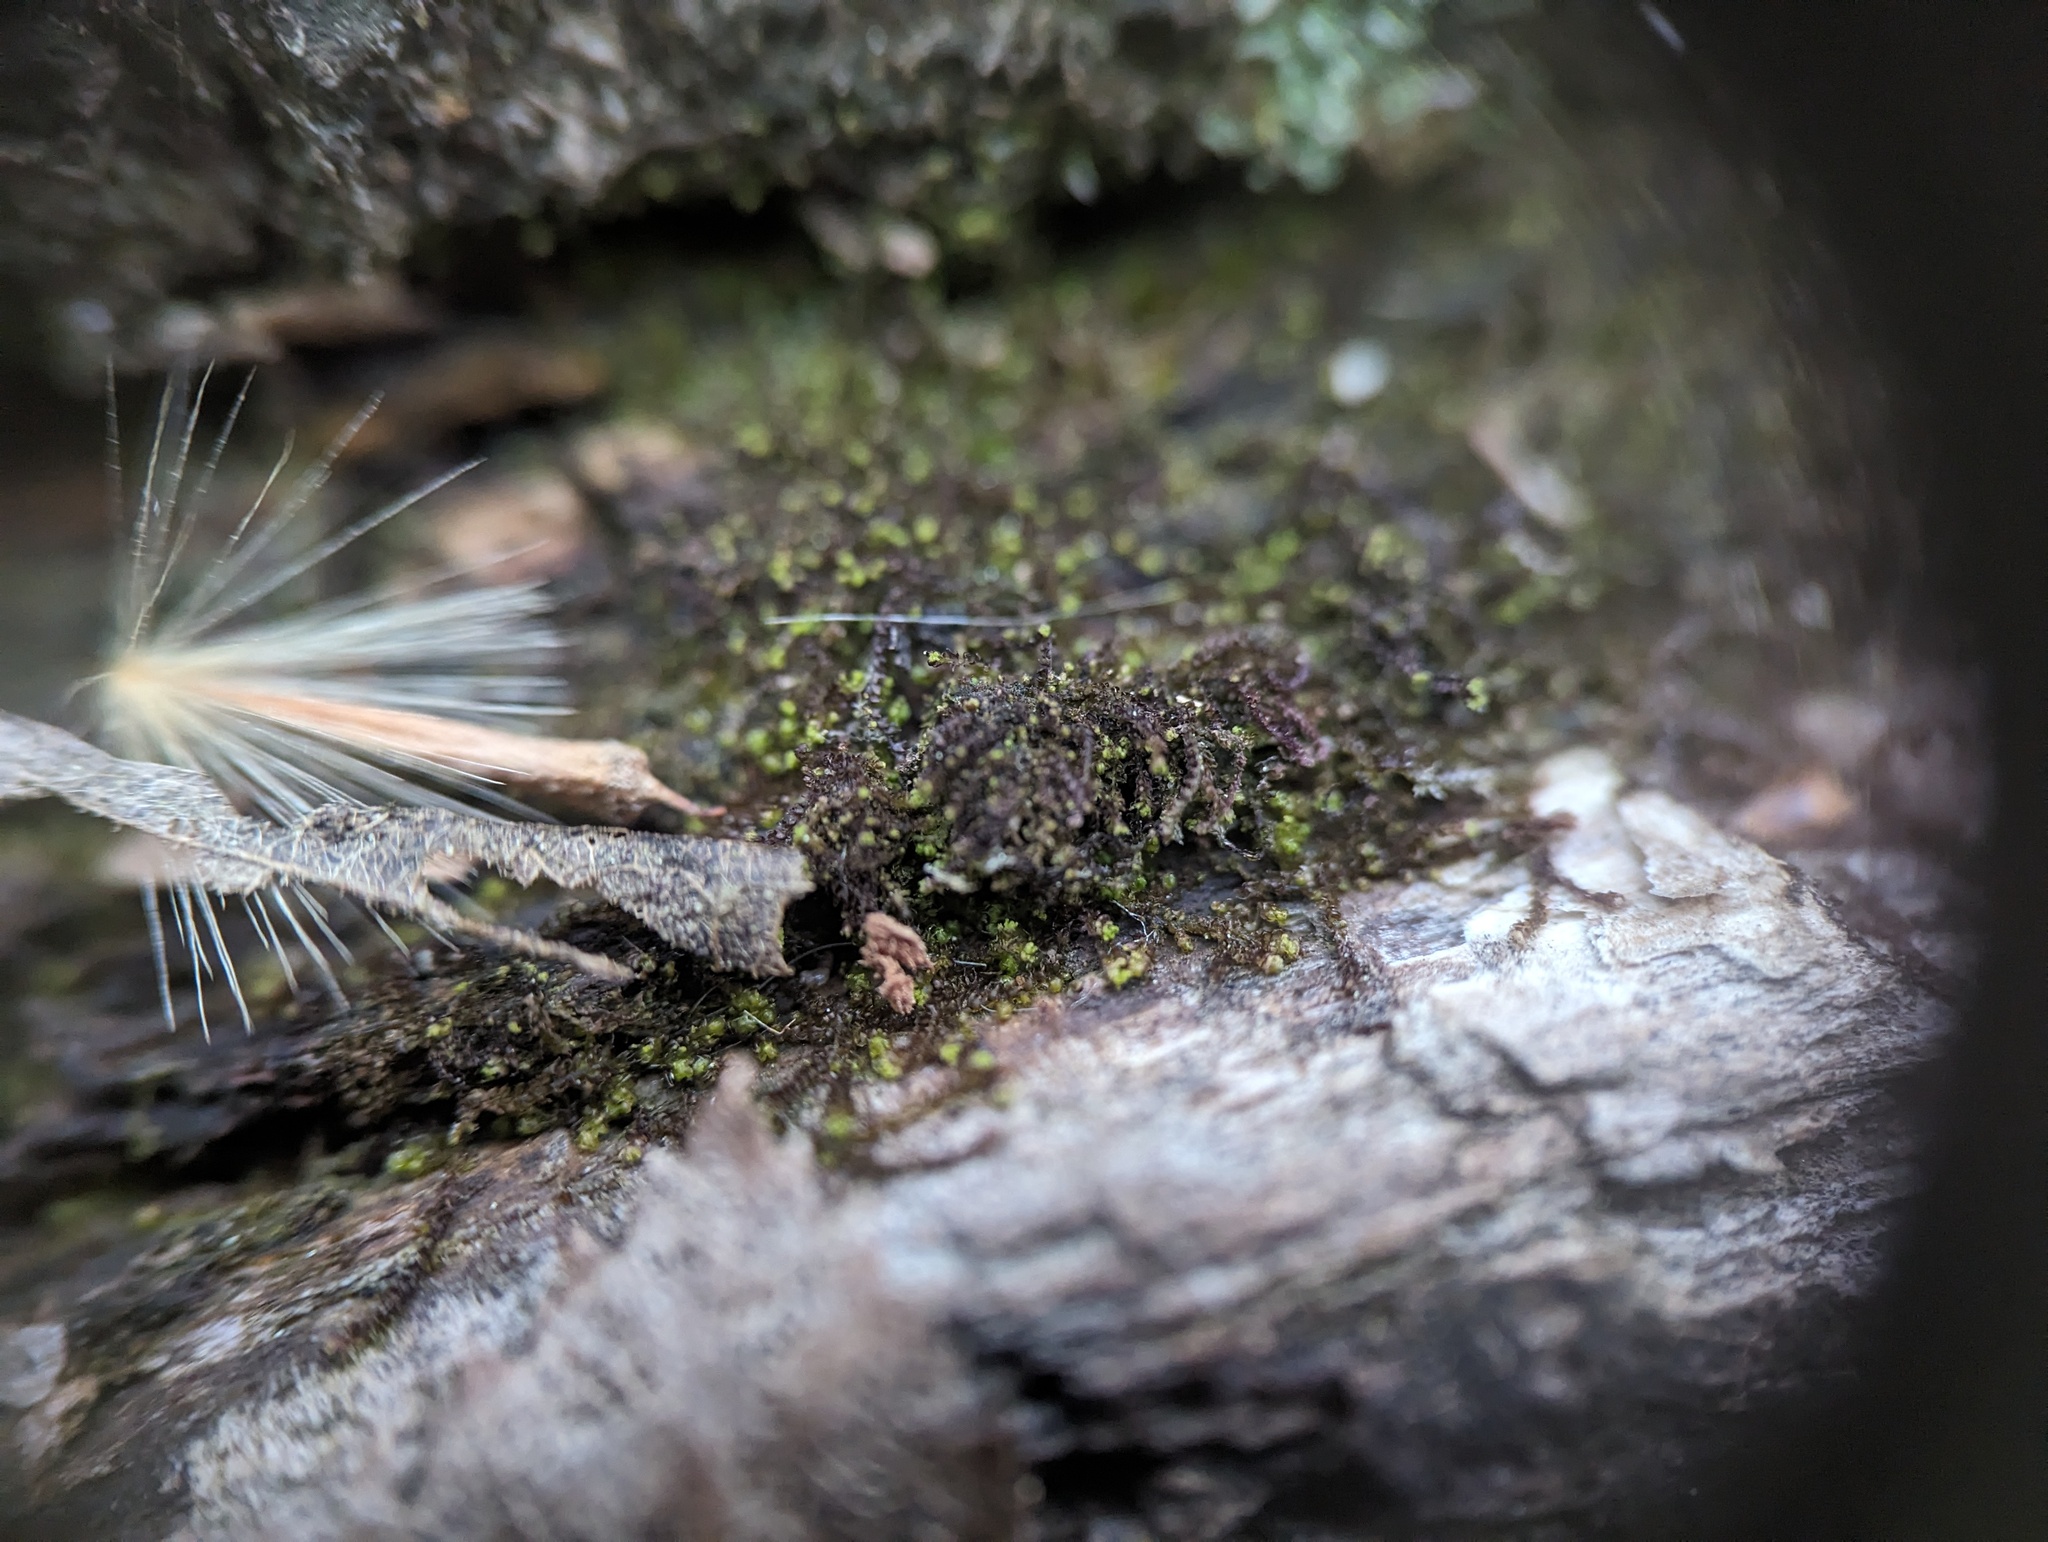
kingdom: Plantae
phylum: Marchantiophyta
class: Jungermanniopsida
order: Jungermanniales
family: Cephaloziaceae
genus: Nowellia
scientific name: Nowellia curvifolia
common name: Wood rustwort
